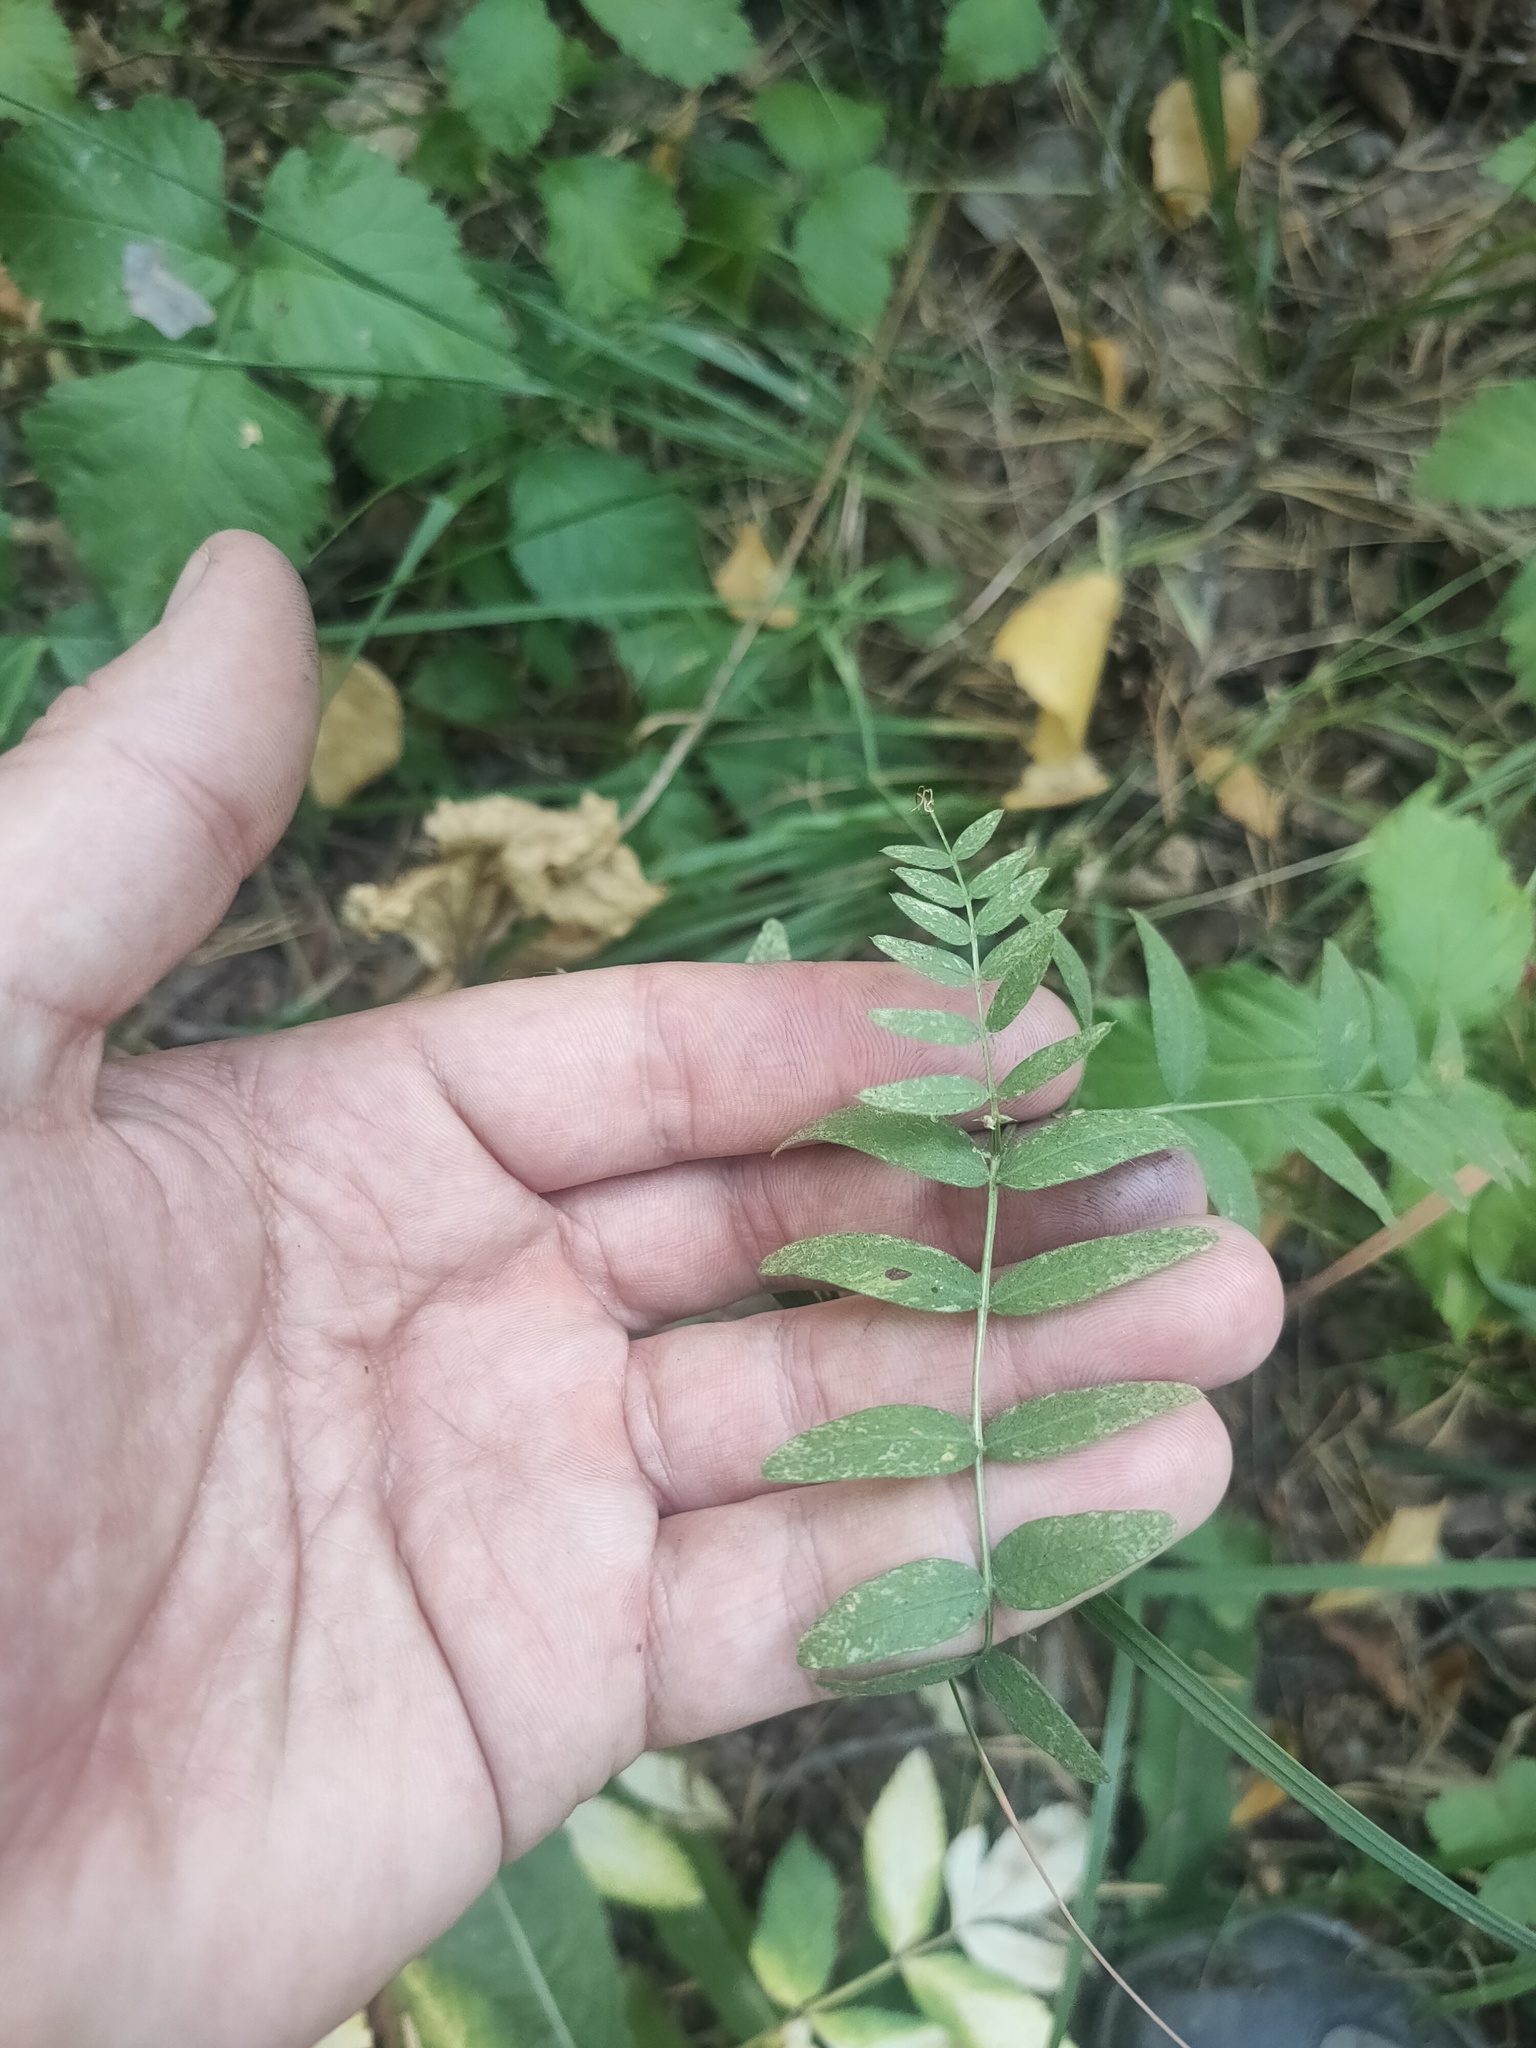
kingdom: Plantae
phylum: Tracheophyta
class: Magnoliopsida
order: Fabales
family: Fabaceae
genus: Vicia
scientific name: Vicia sepium
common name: Bush vetch
